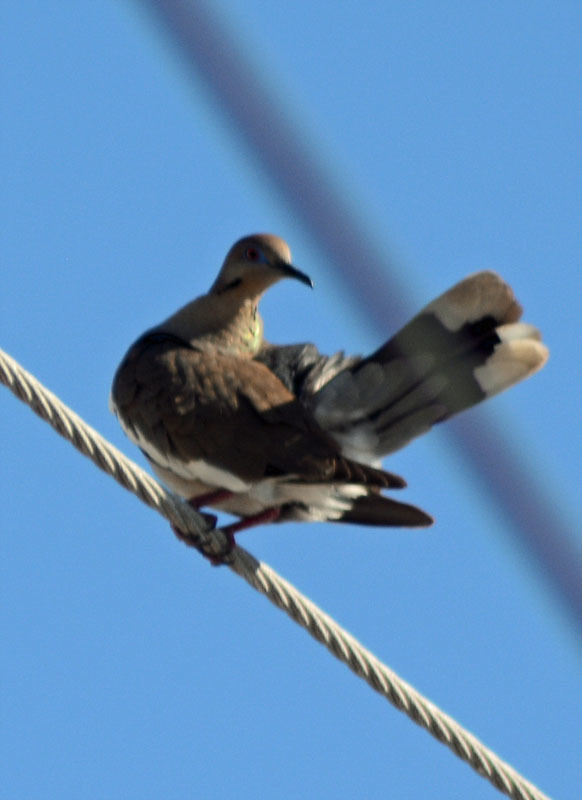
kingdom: Animalia
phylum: Chordata
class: Aves
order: Columbiformes
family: Columbidae
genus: Zenaida
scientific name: Zenaida asiatica
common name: White-winged dove
